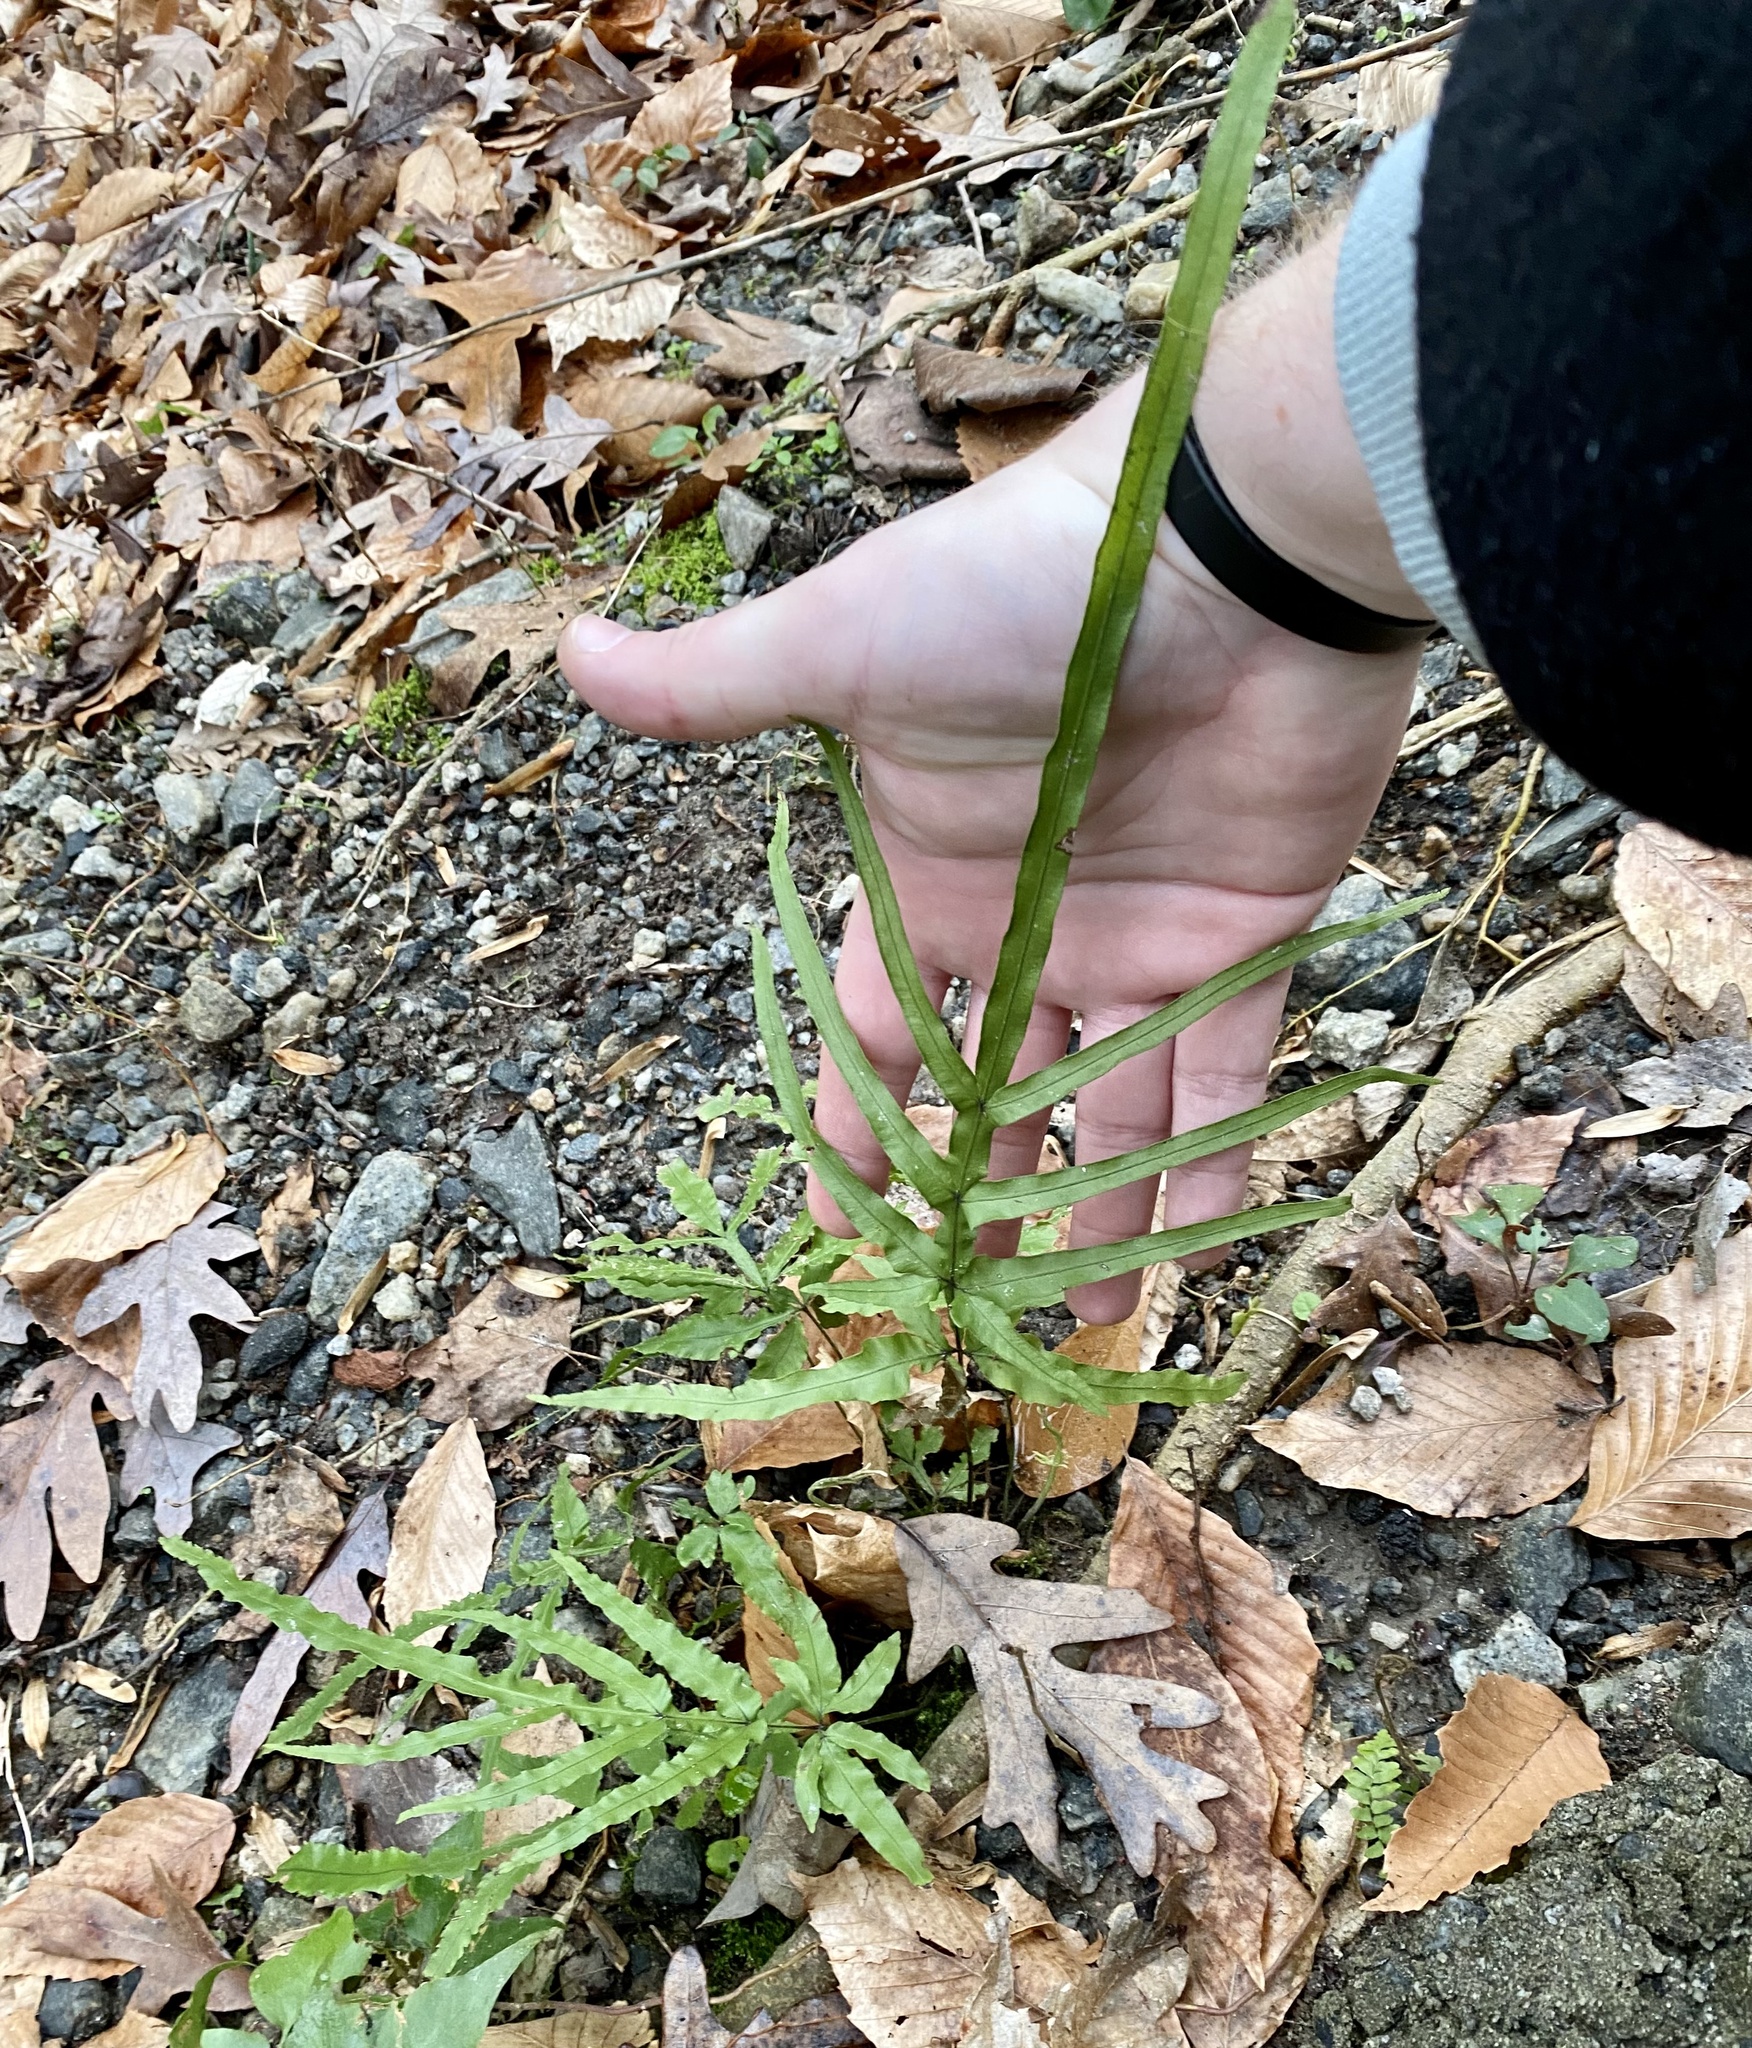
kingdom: Plantae
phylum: Tracheophyta
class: Polypodiopsida
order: Polypodiales
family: Pteridaceae
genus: Pteris
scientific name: Pteris multifida
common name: Spider brake
